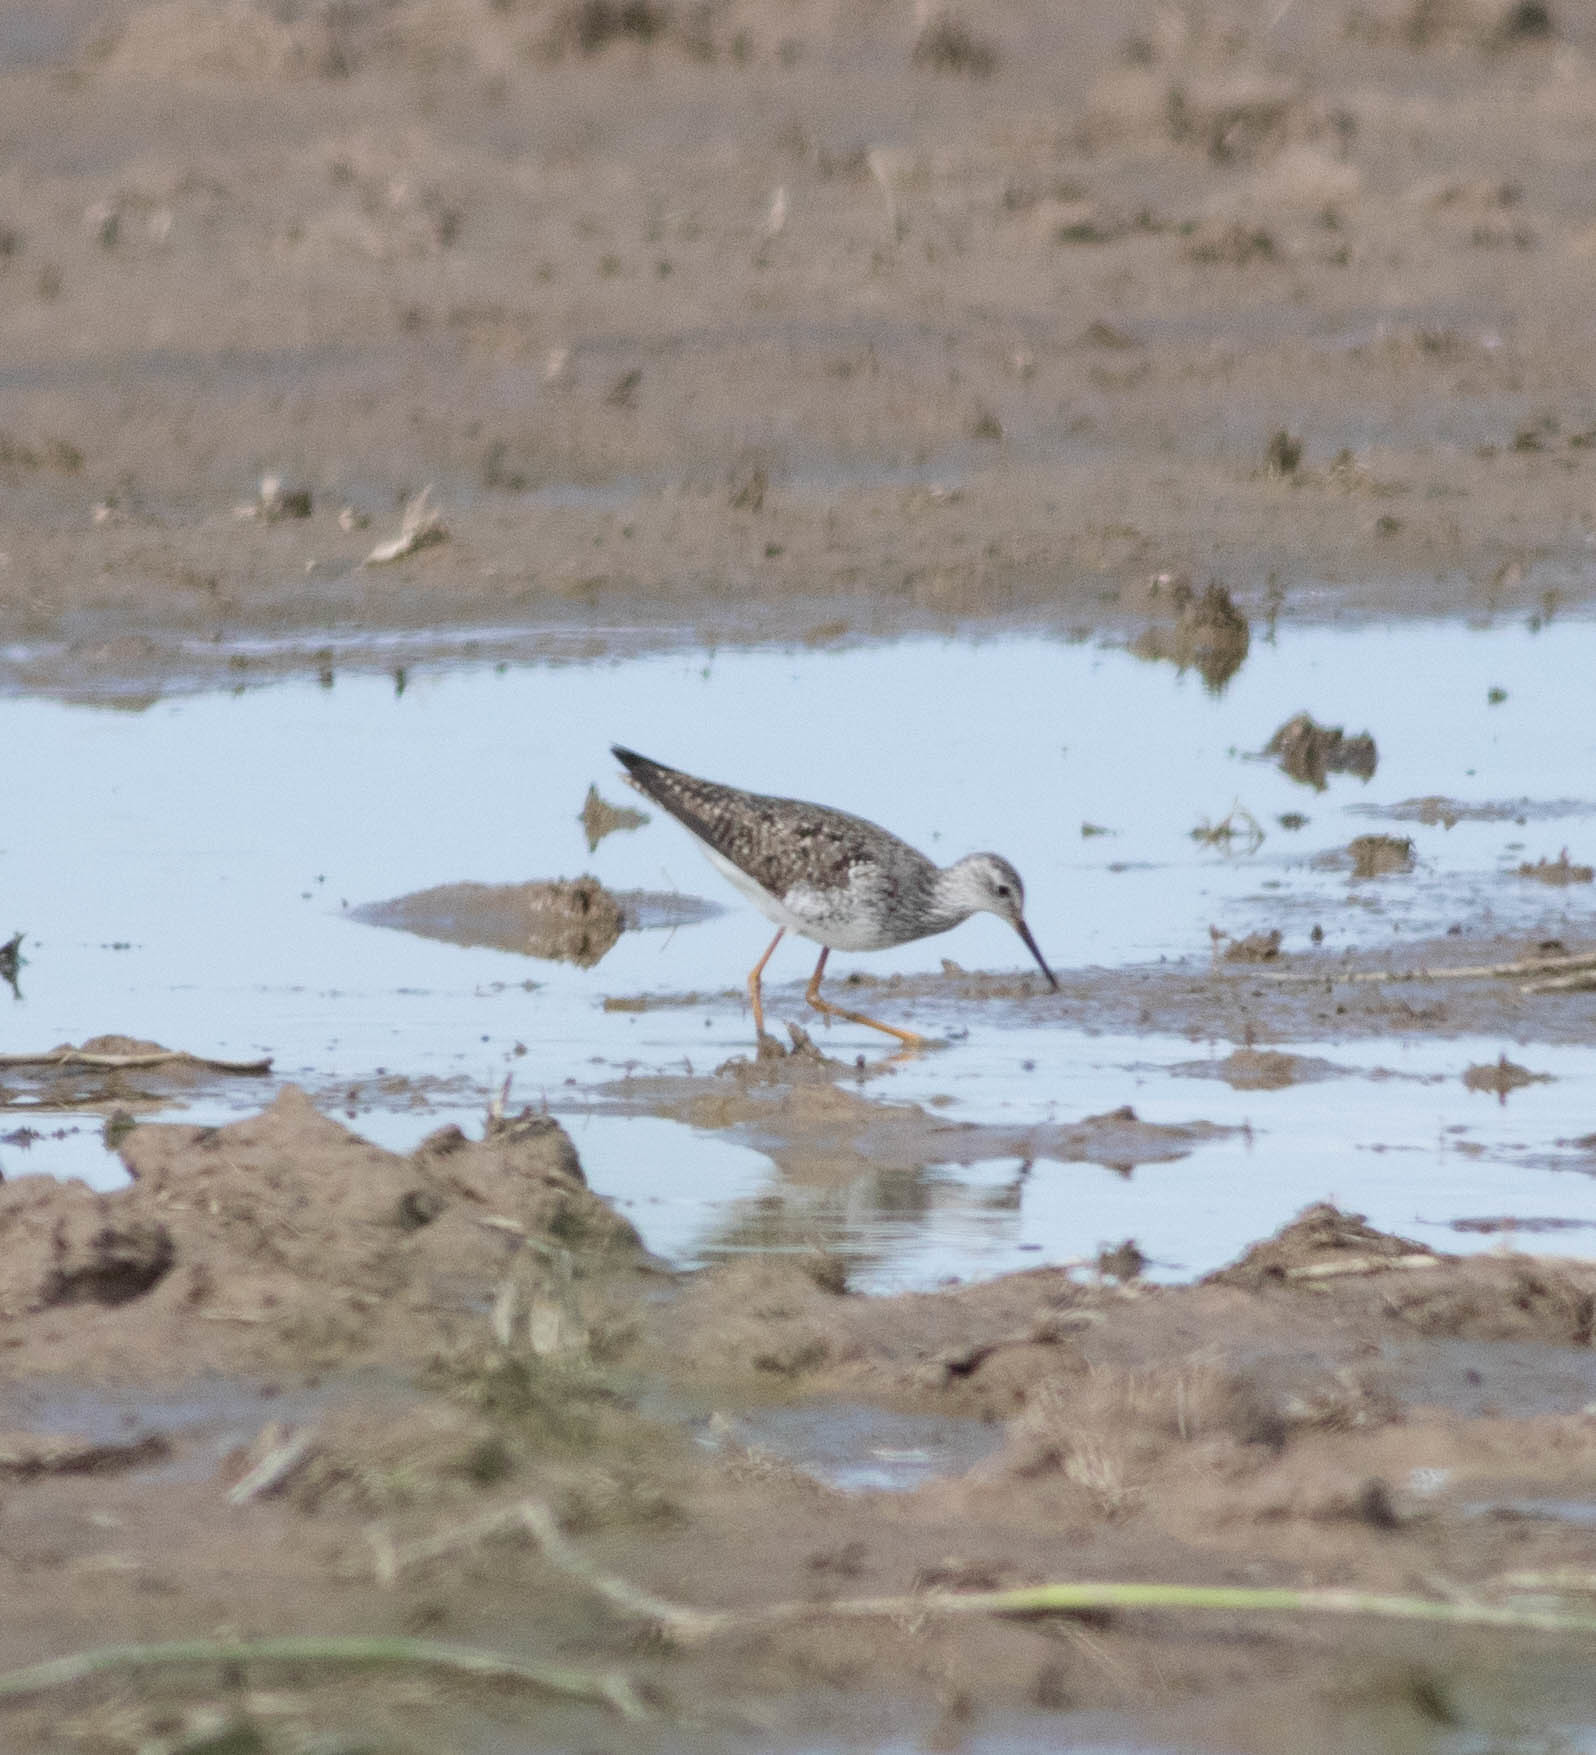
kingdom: Animalia
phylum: Chordata
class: Aves
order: Charadriiformes
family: Scolopacidae
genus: Tringa
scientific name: Tringa flavipes
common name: Lesser yellowlegs
